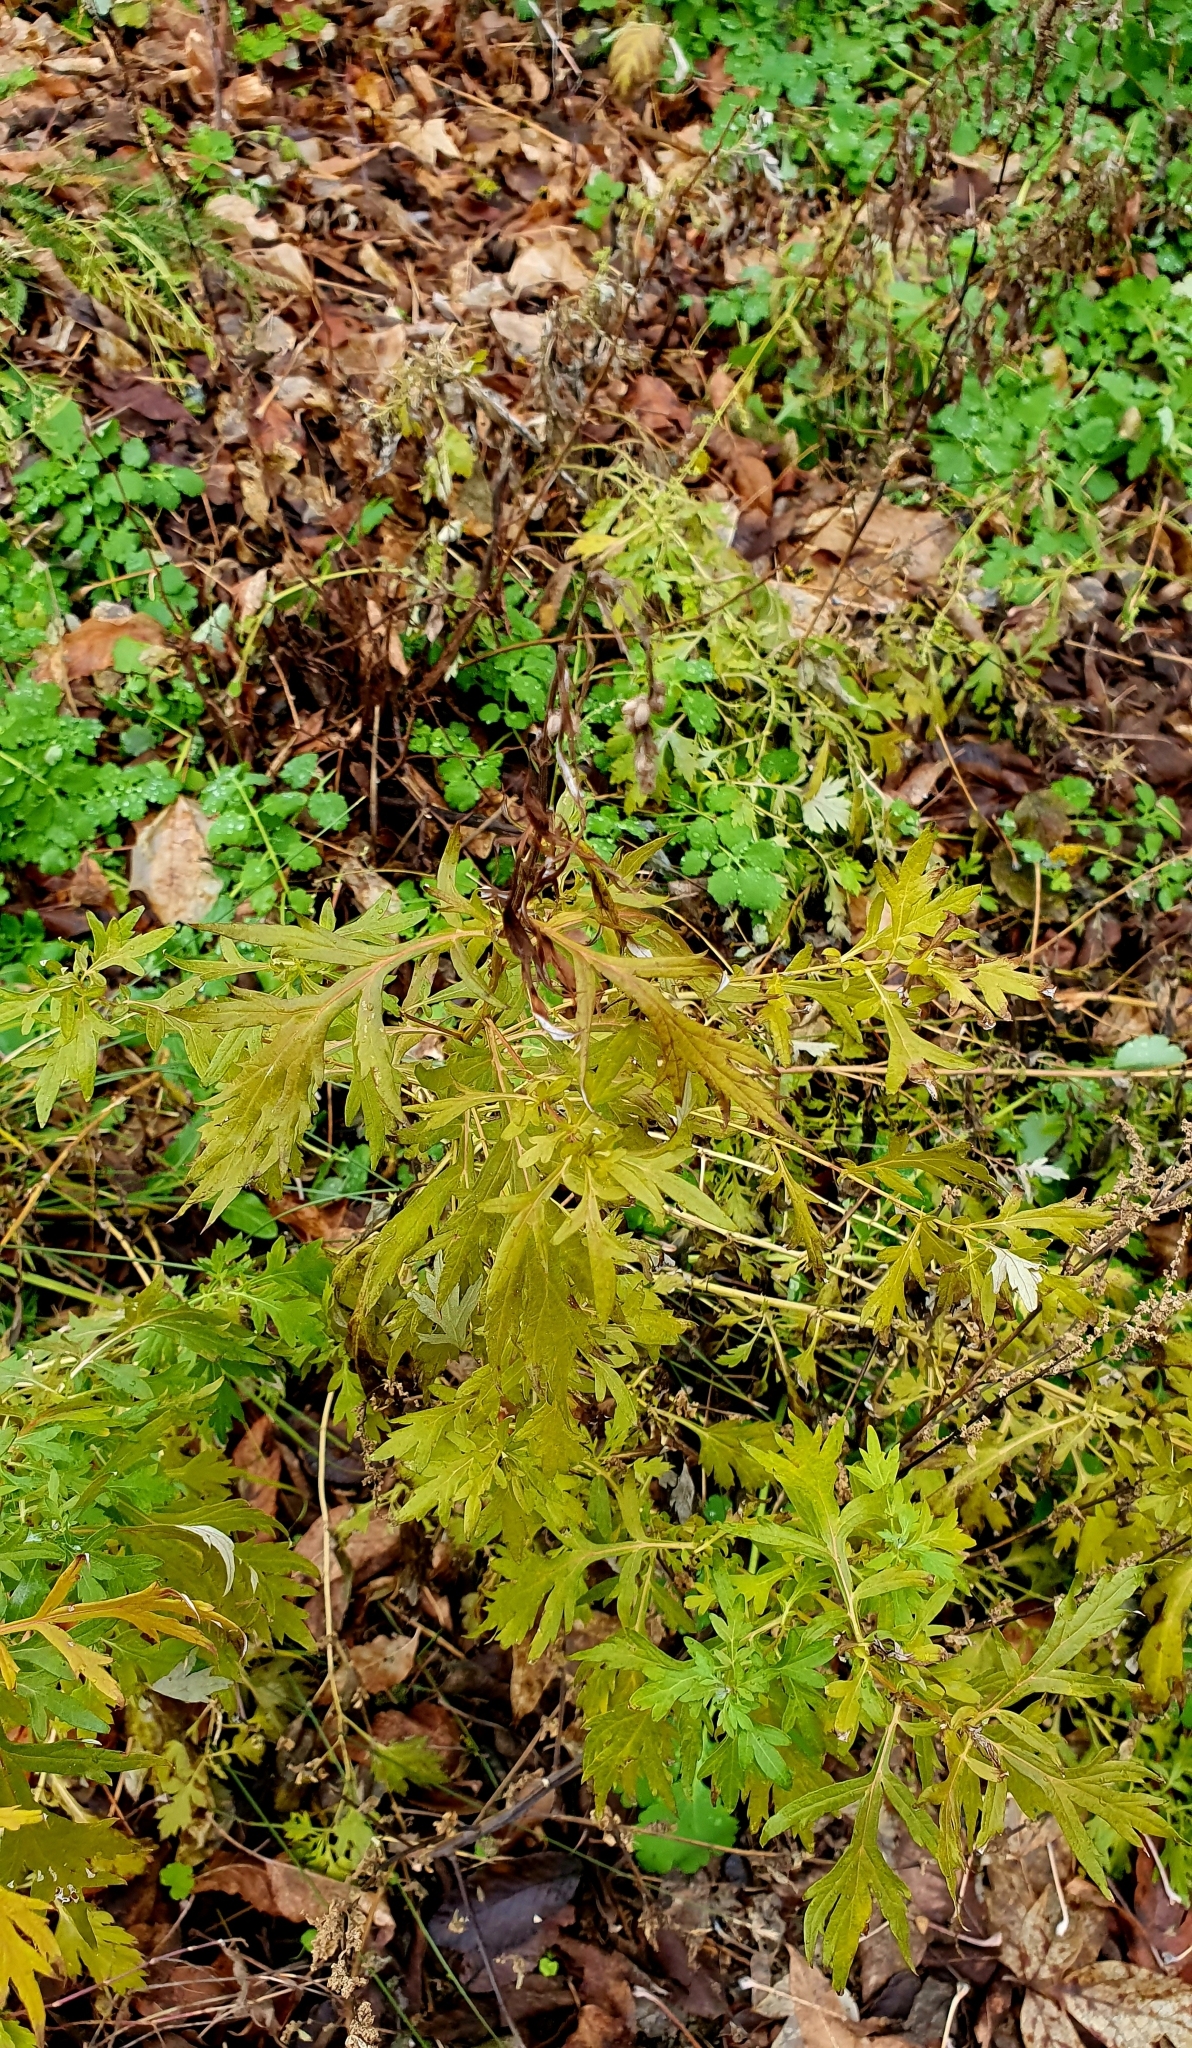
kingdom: Plantae
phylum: Tracheophyta
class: Magnoliopsida
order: Asterales
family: Asteraceae
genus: Artemisia
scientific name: Artemisia vulgaris
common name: Mugwort
